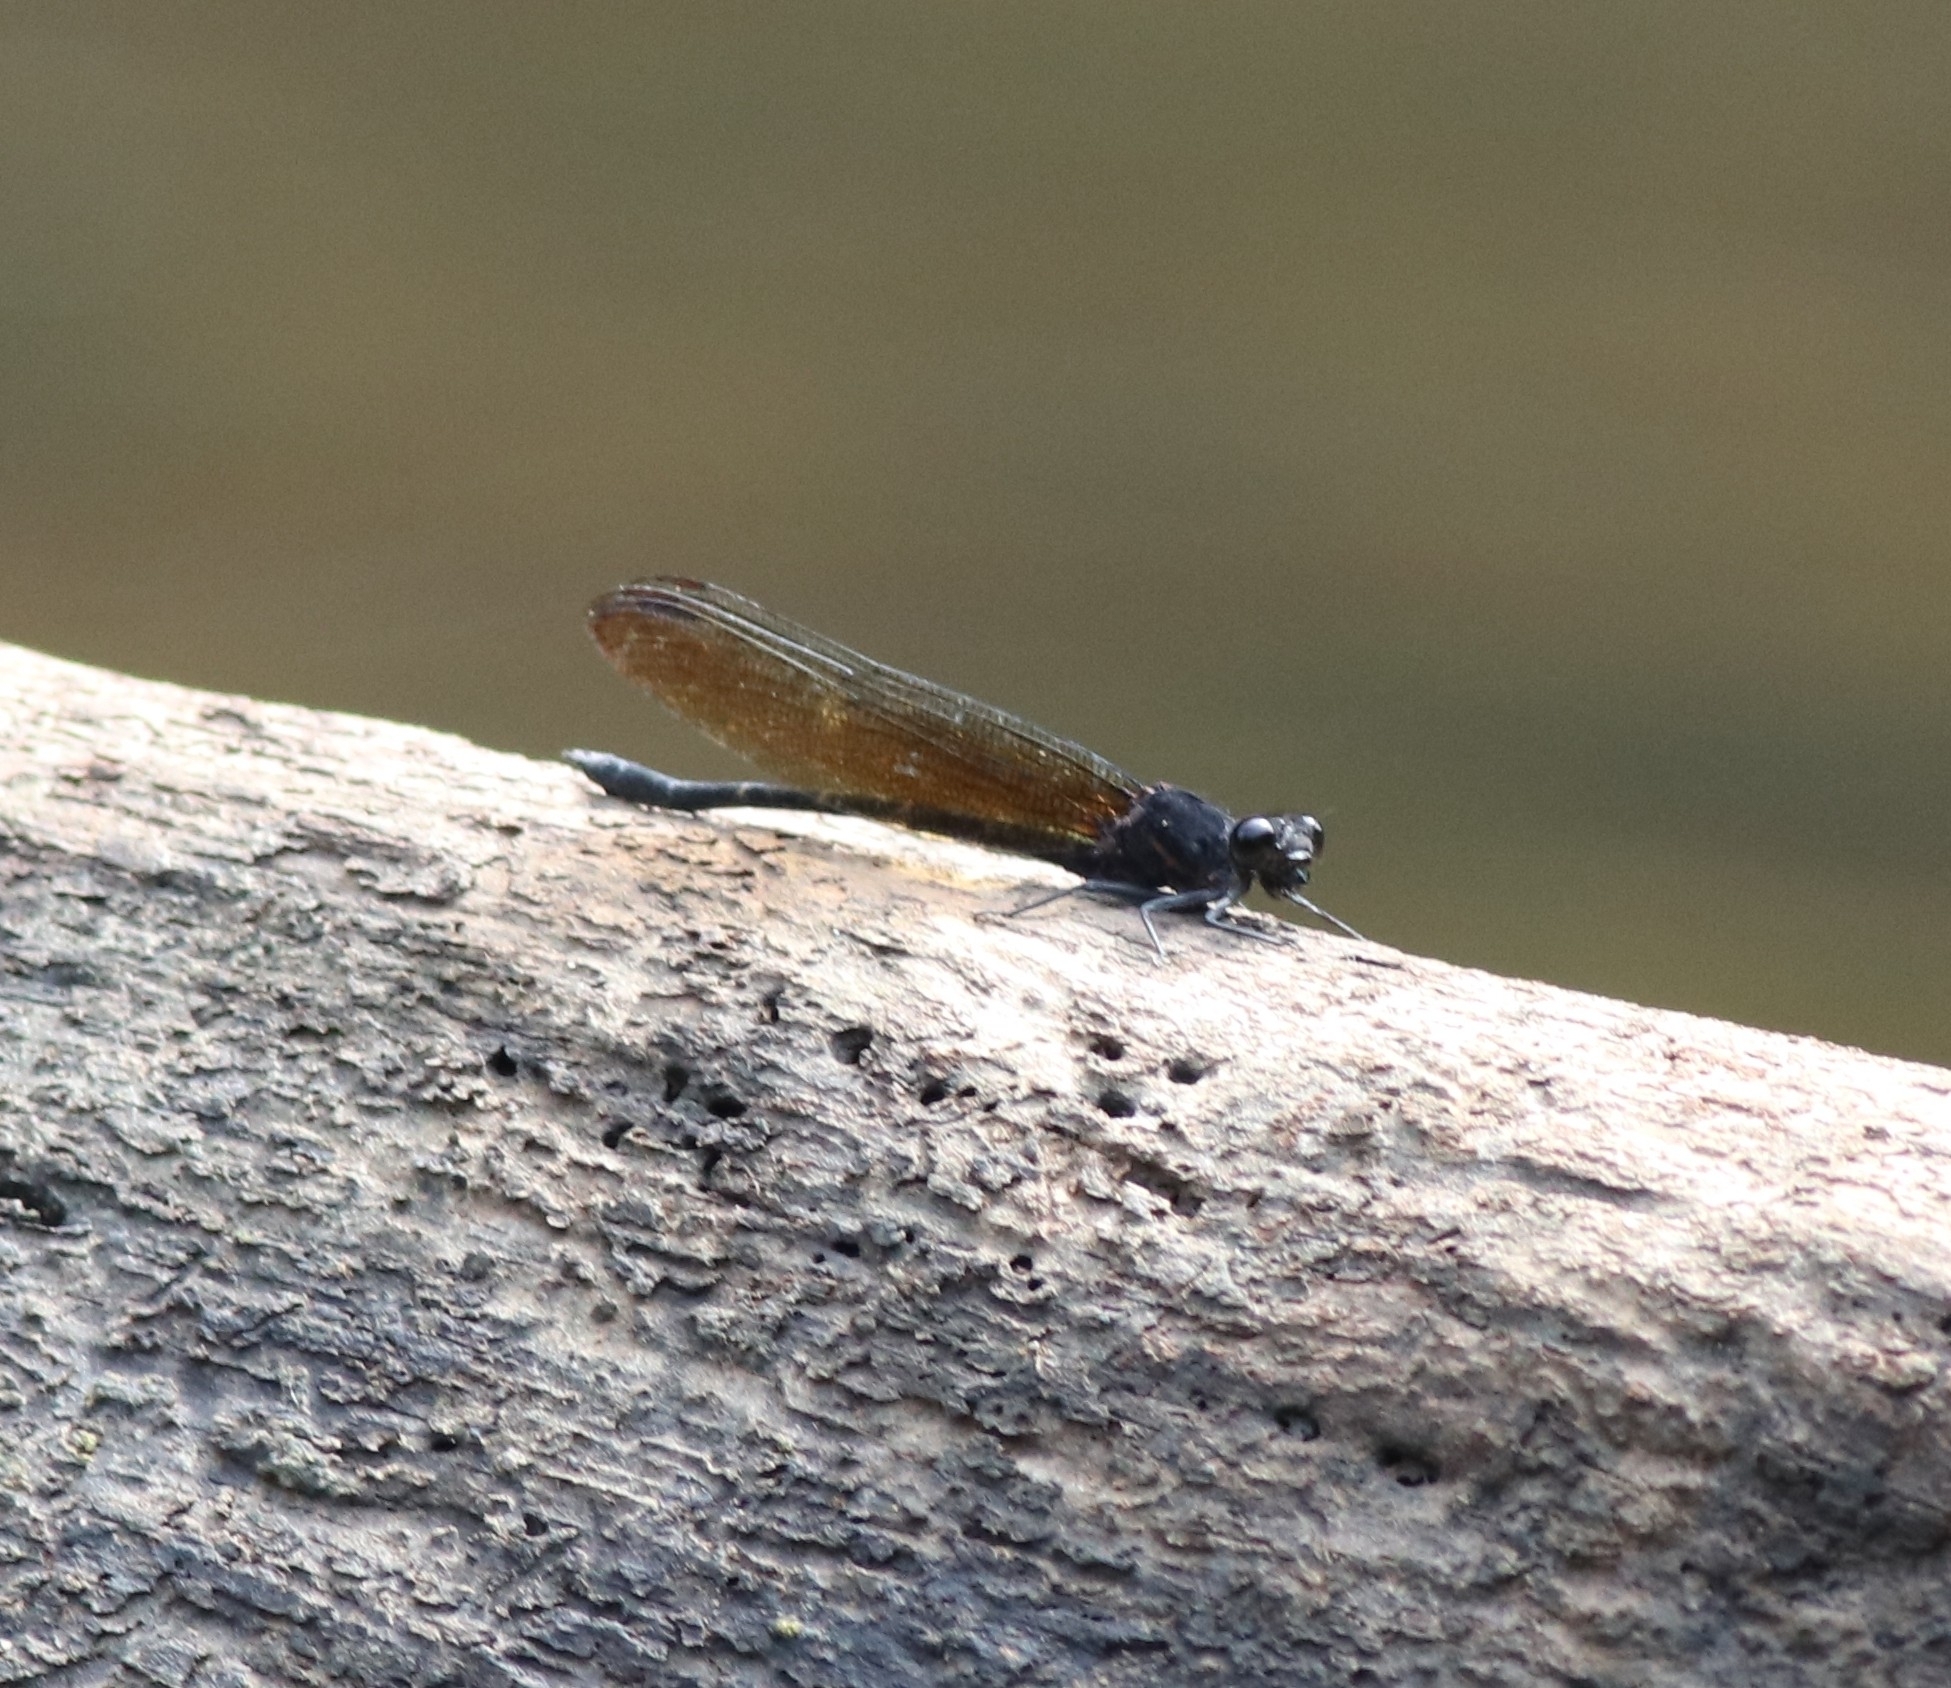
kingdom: Animalia
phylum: Arthropoda
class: Insecta
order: Odonata
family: Euphaeidae
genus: Dysphaea
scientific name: Dysphaea ethela
